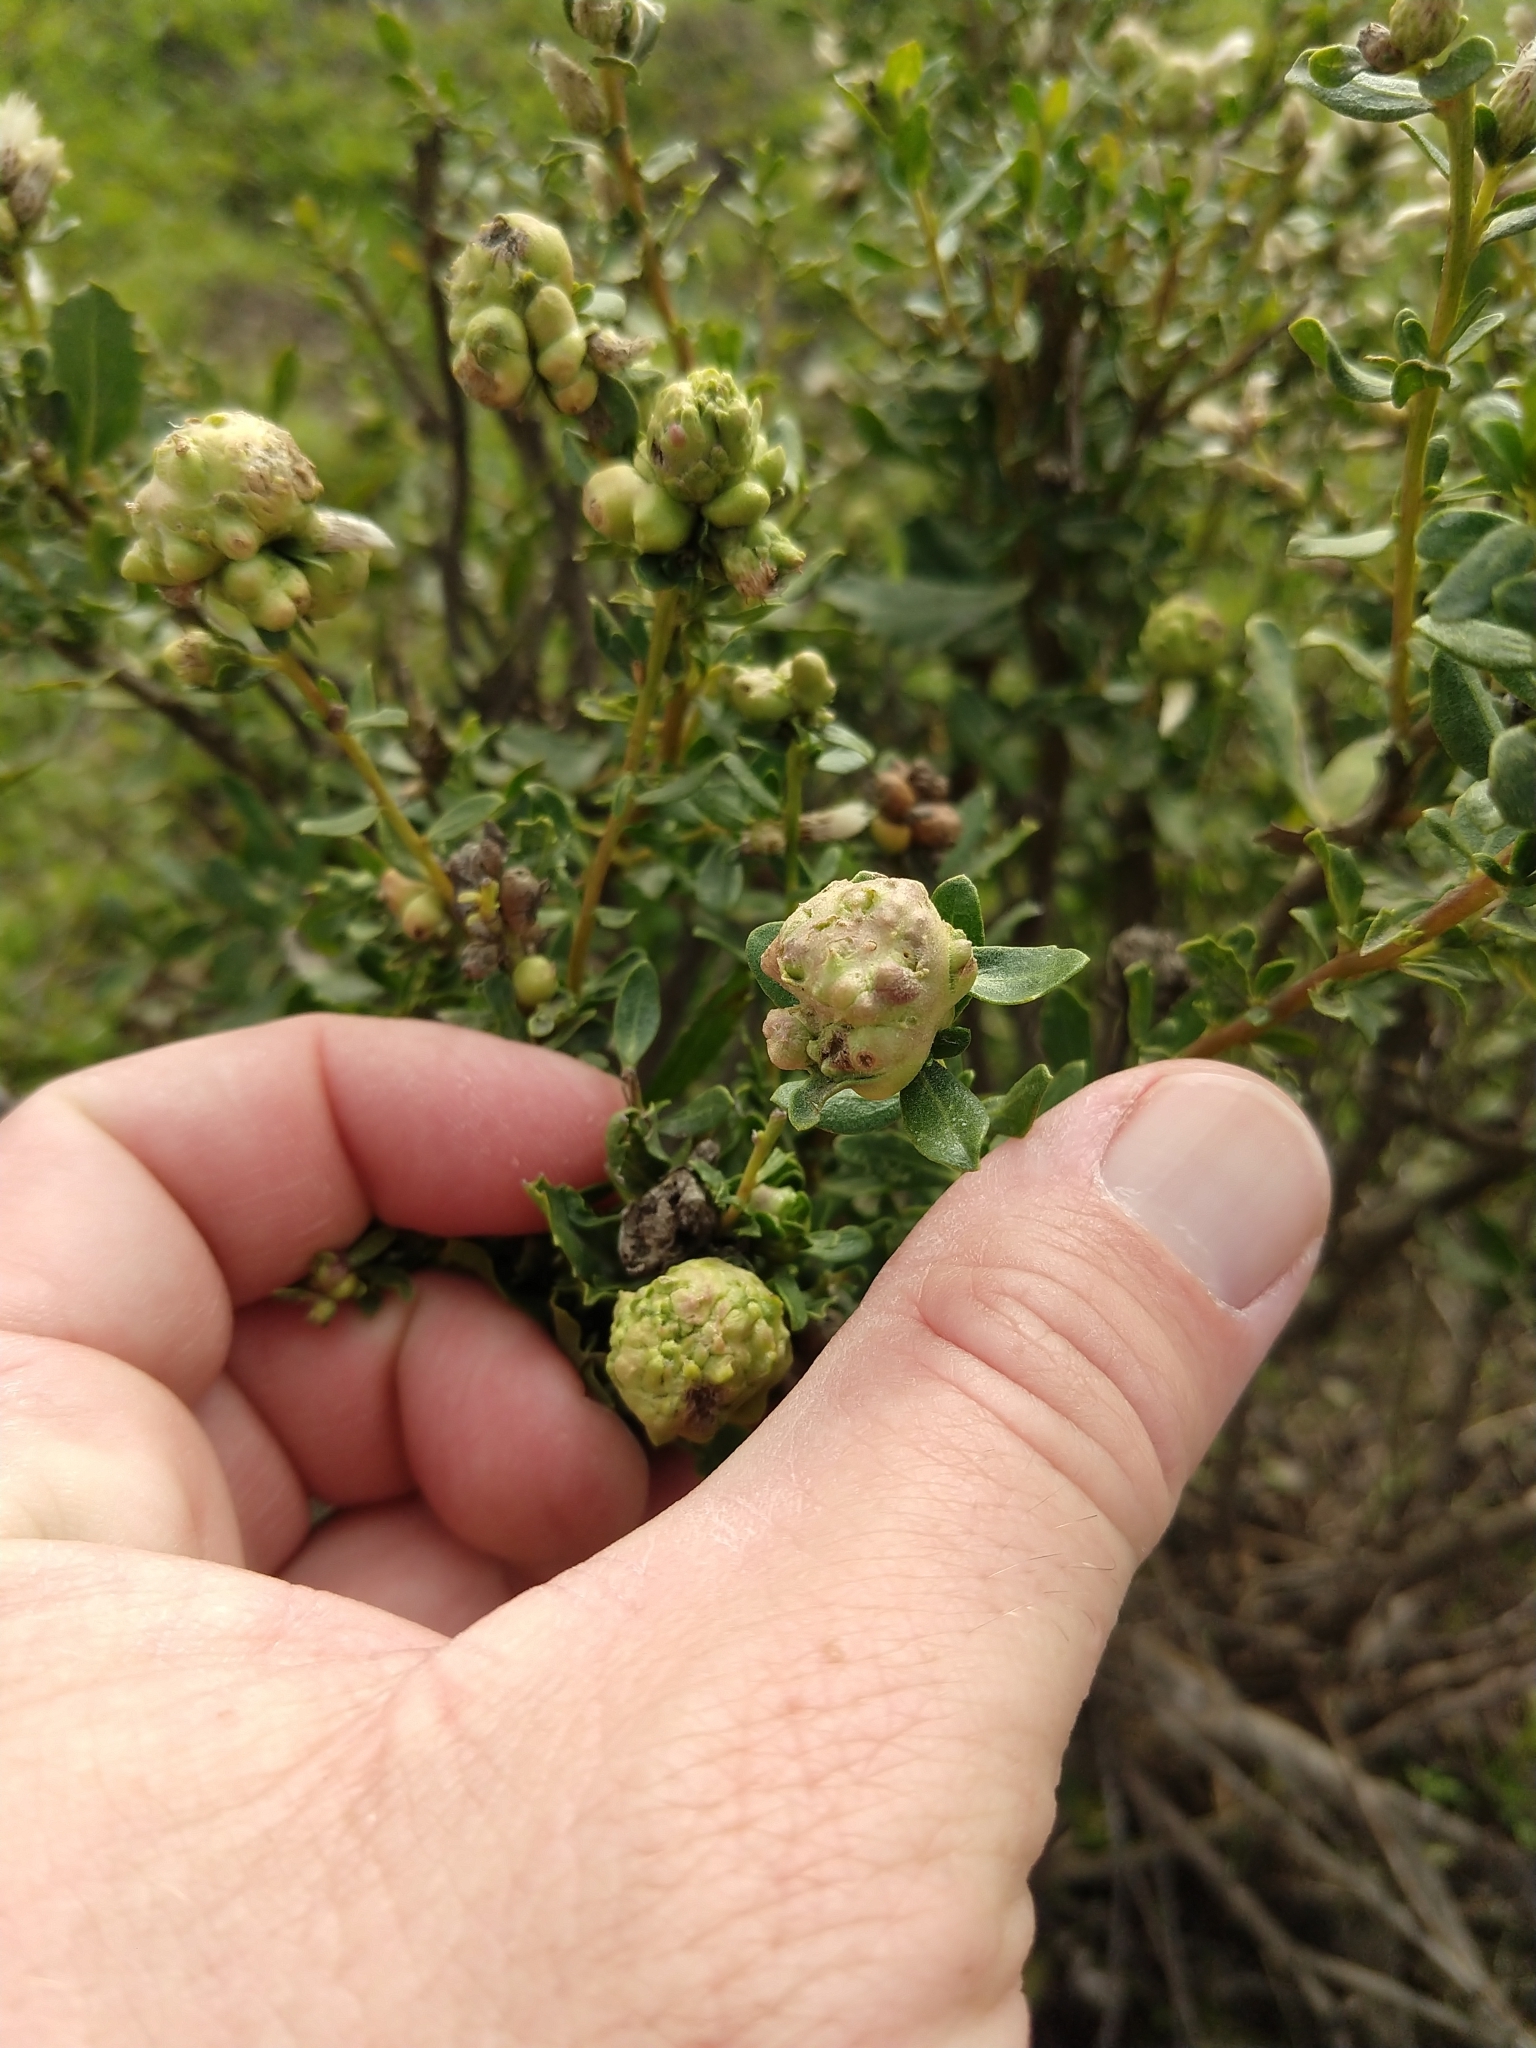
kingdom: Animalia
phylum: Arthropoda
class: Insecta
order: Diptera
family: Cecidomyiidae
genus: Rhopalomyia
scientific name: Rhopalomyia californica
